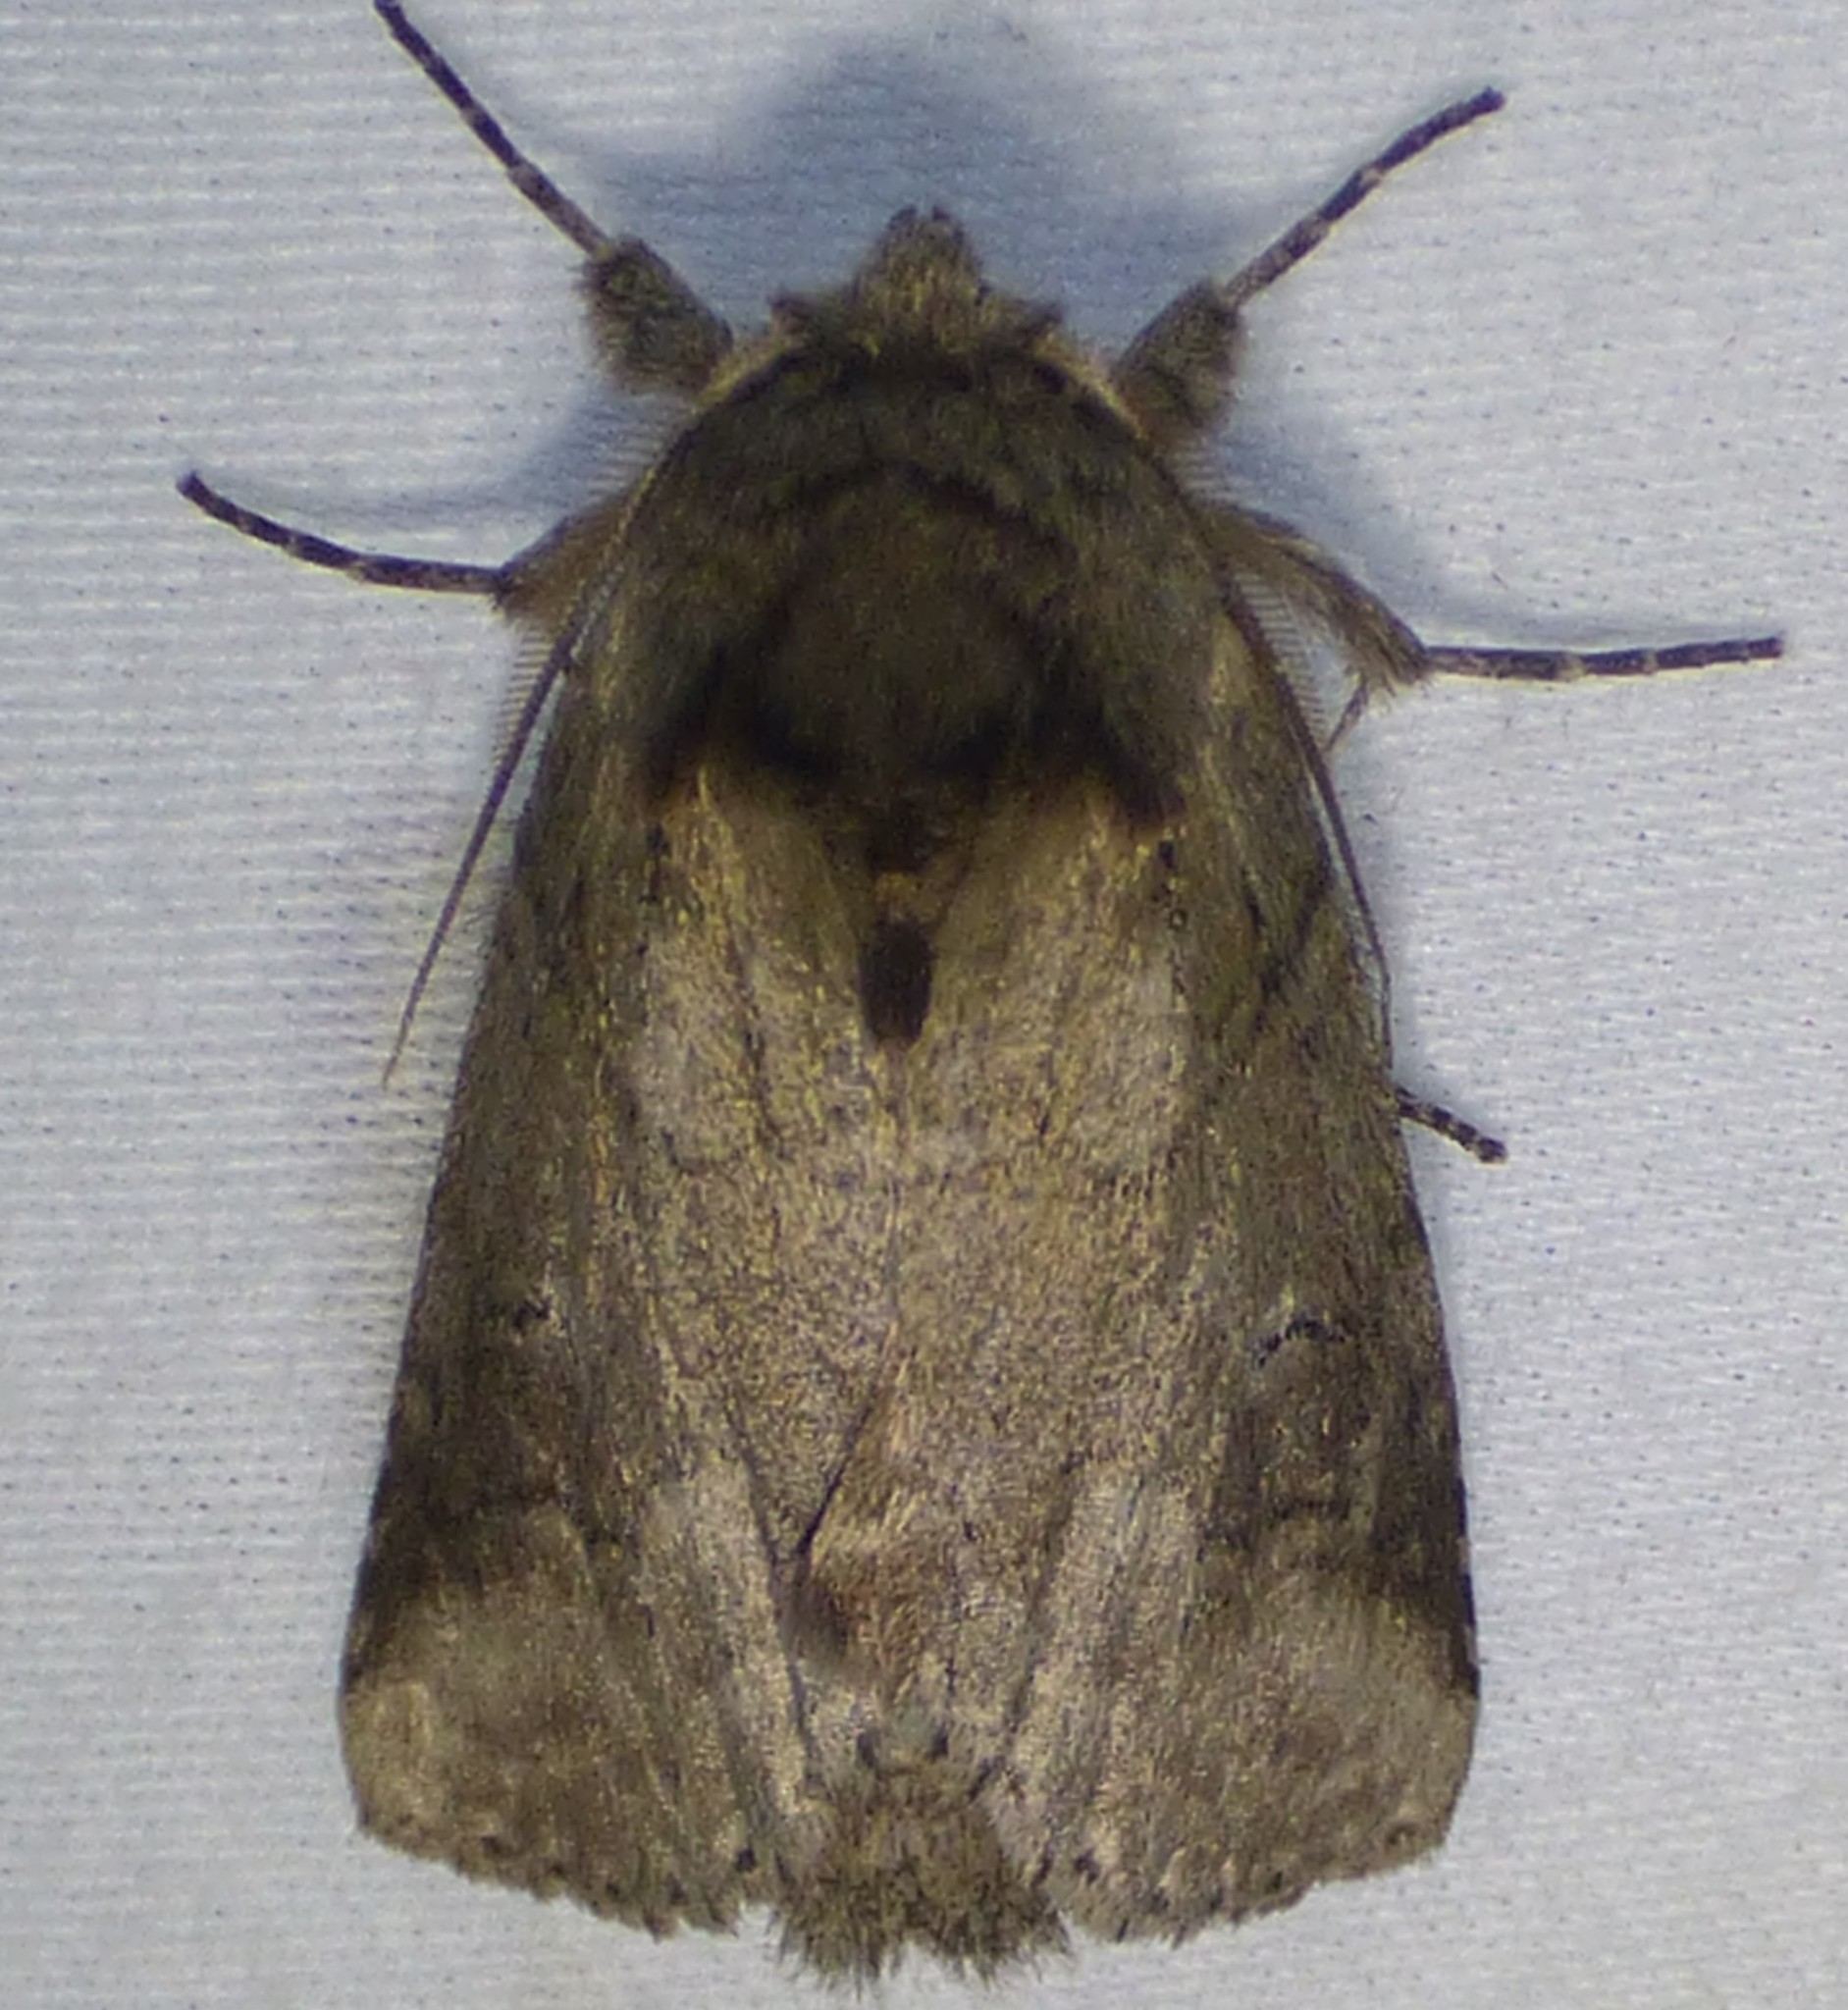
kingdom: Animalia
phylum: Arthropoda
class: Insecta
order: Lepidoptera
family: Notodontidae
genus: Lochmaeus
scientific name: Lochmaeus bilineata
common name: Double-lined prominent
